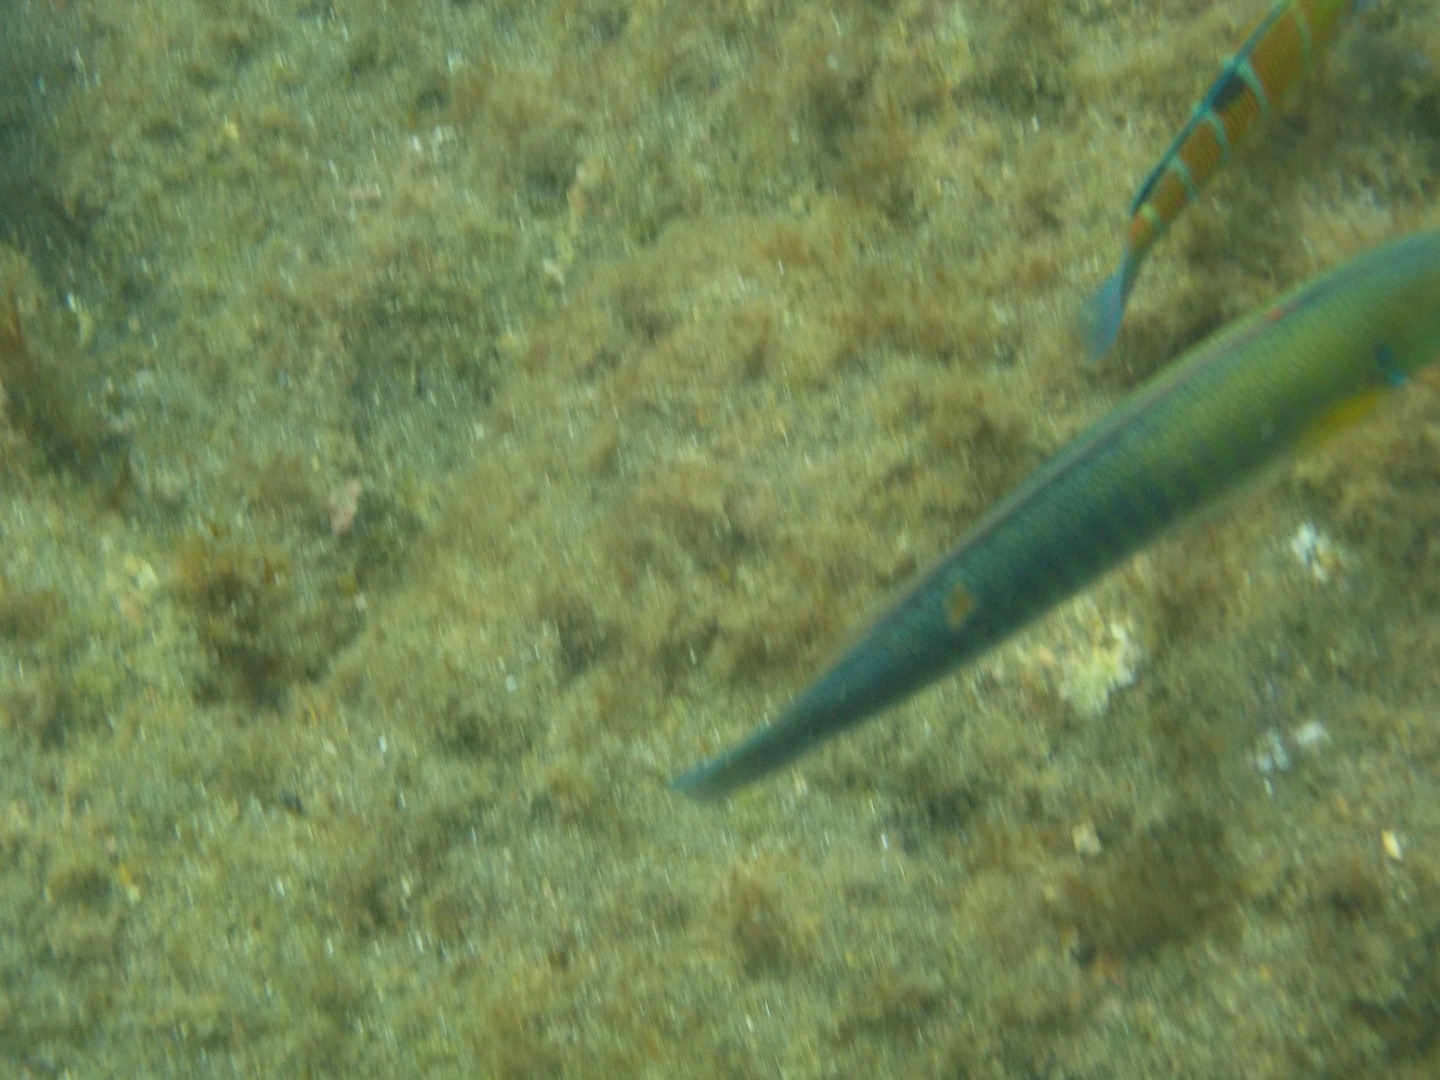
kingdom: Animalia
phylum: Chordata
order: Perciformes
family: Labridae
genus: Coris
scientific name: Coris
